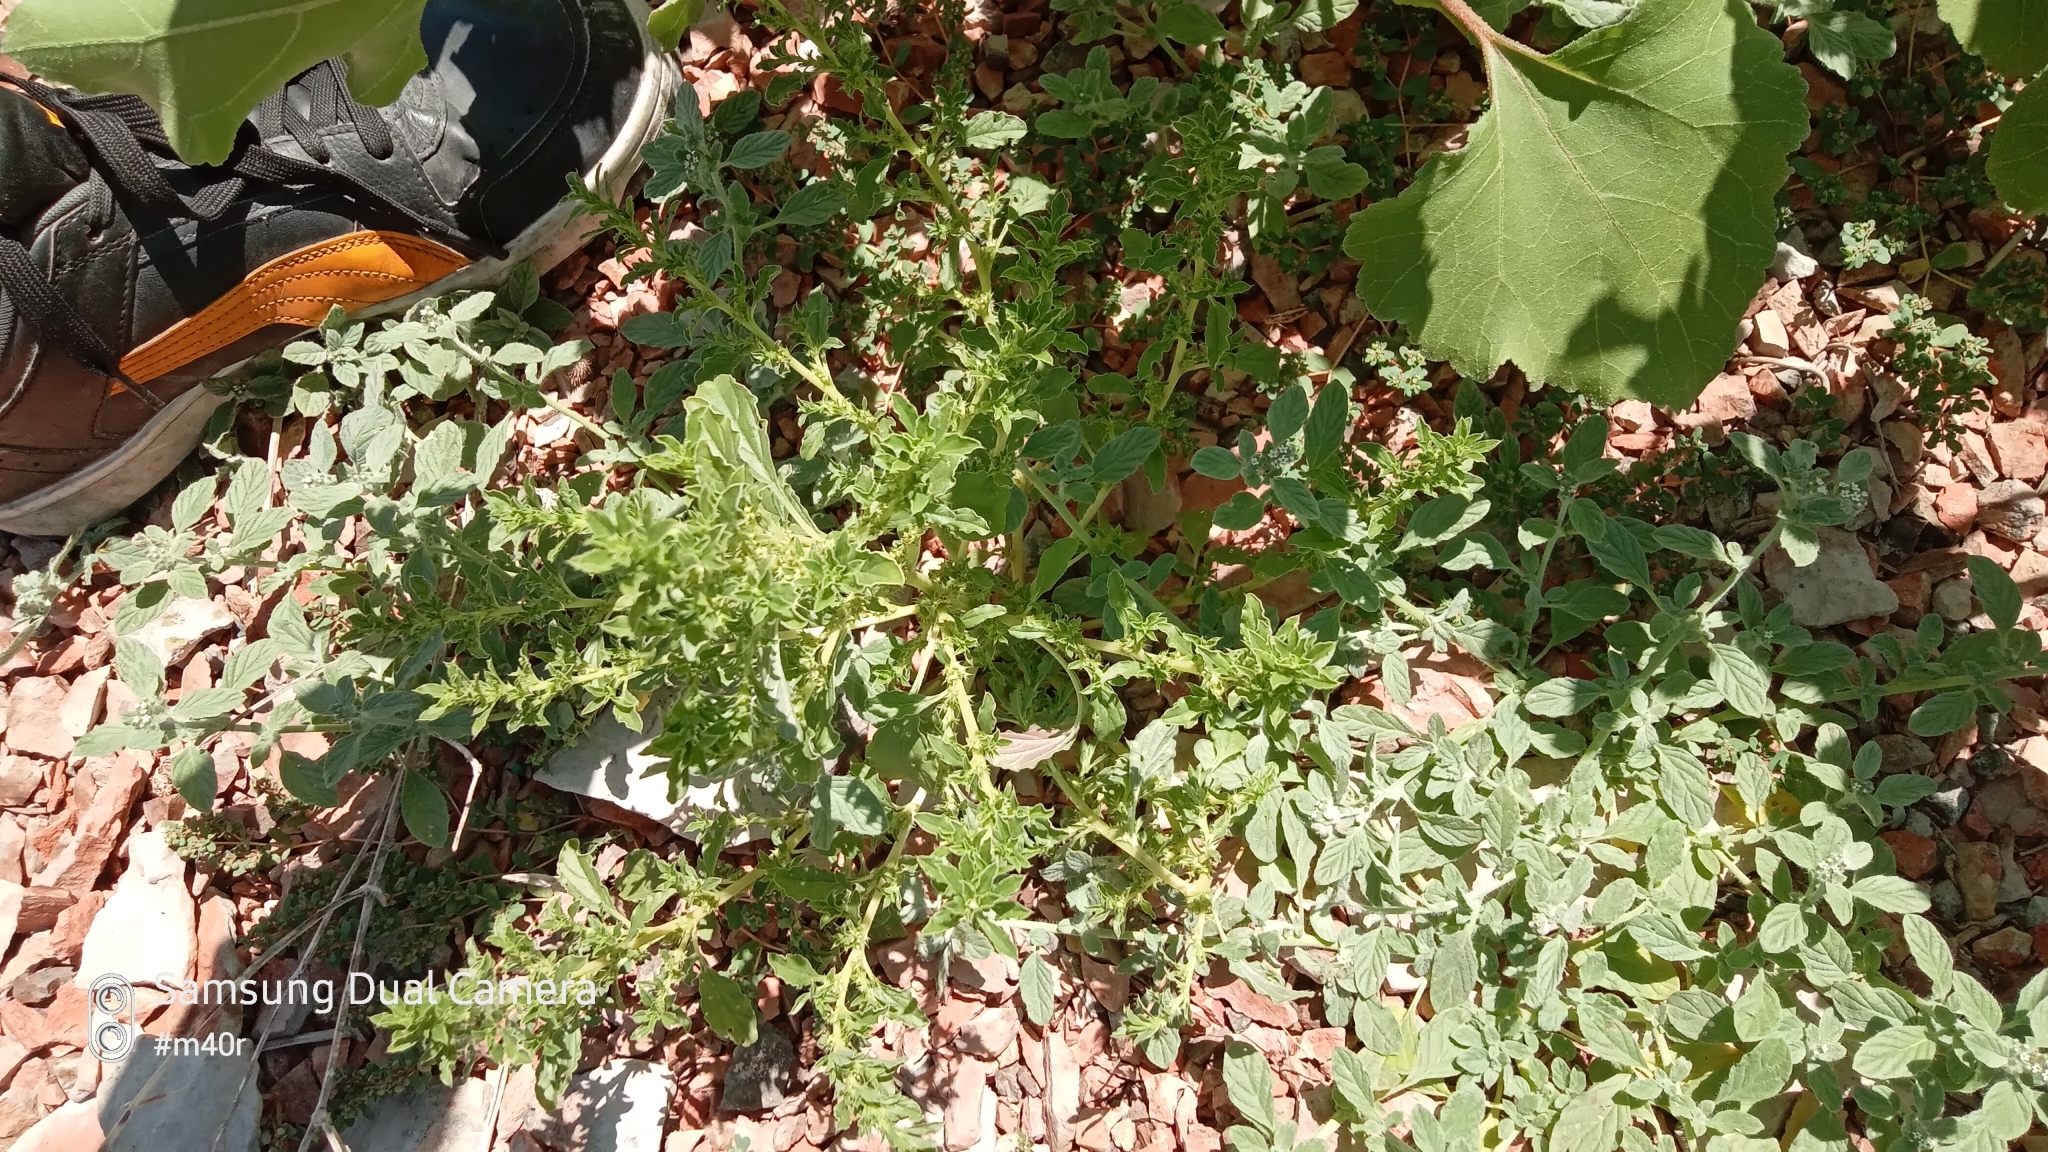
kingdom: Plantae
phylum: Tracheophyta
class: Magnoliopsida
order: Caryophyllales
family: Amaranthaceae
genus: Amaranthus
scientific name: Amaranthus albus
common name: White pigweed
